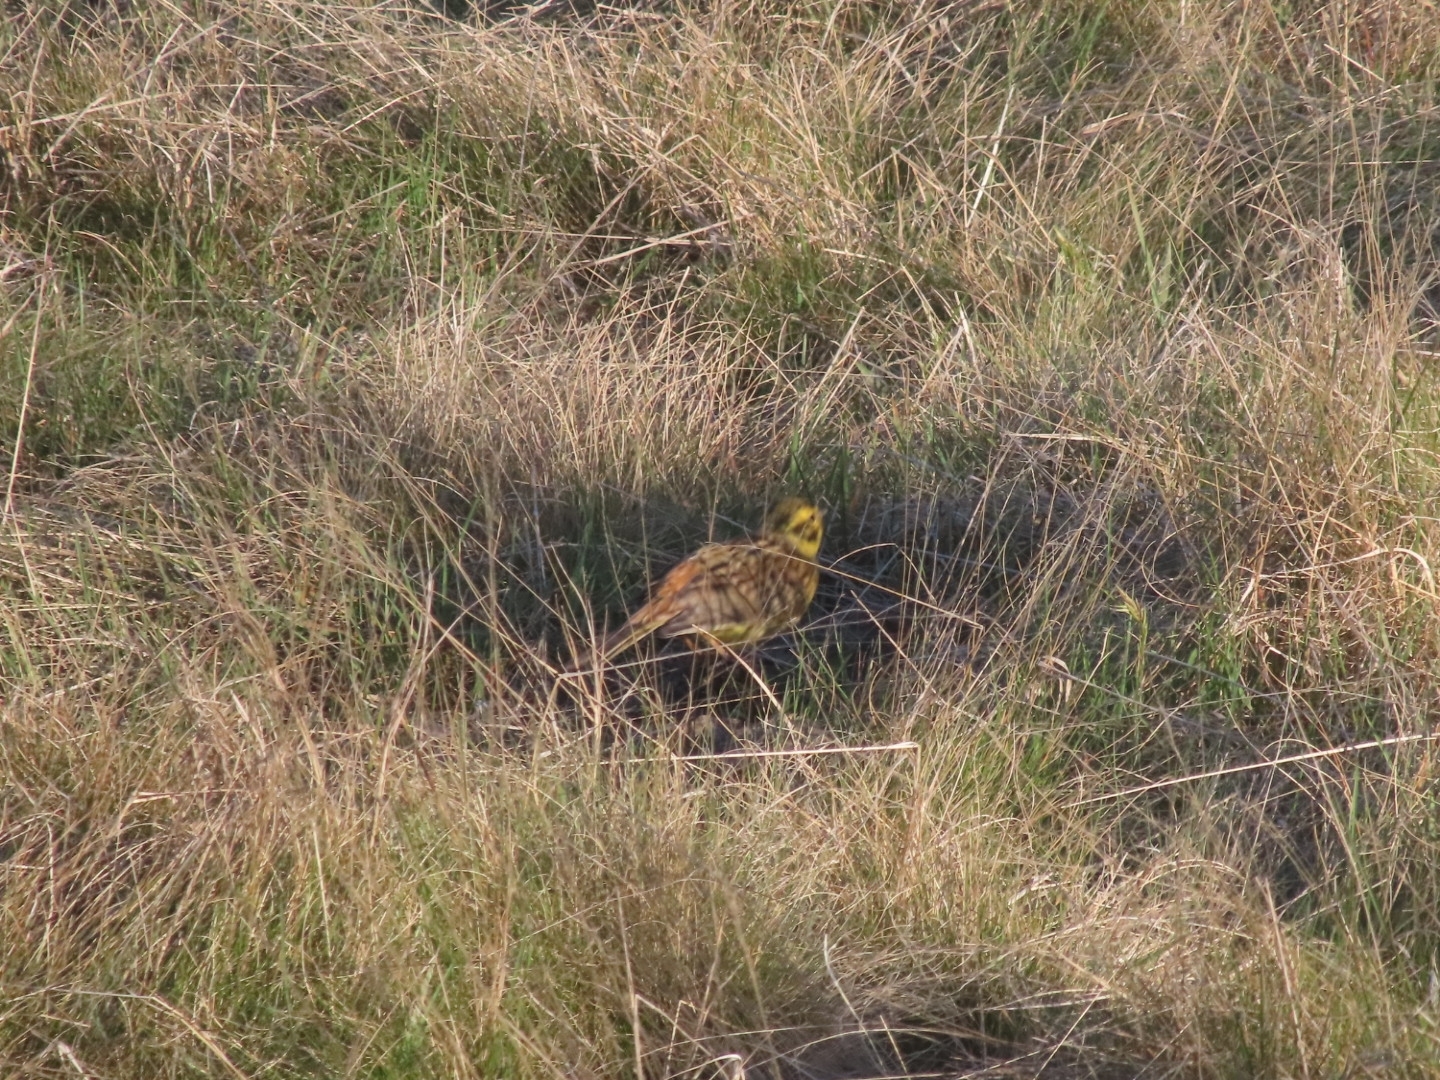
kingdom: Animalia
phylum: Chordata
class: Aves
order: Passeriformes
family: Emberizidae
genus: Emberiza
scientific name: Emberiza citrinella
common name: Yellowhammer
